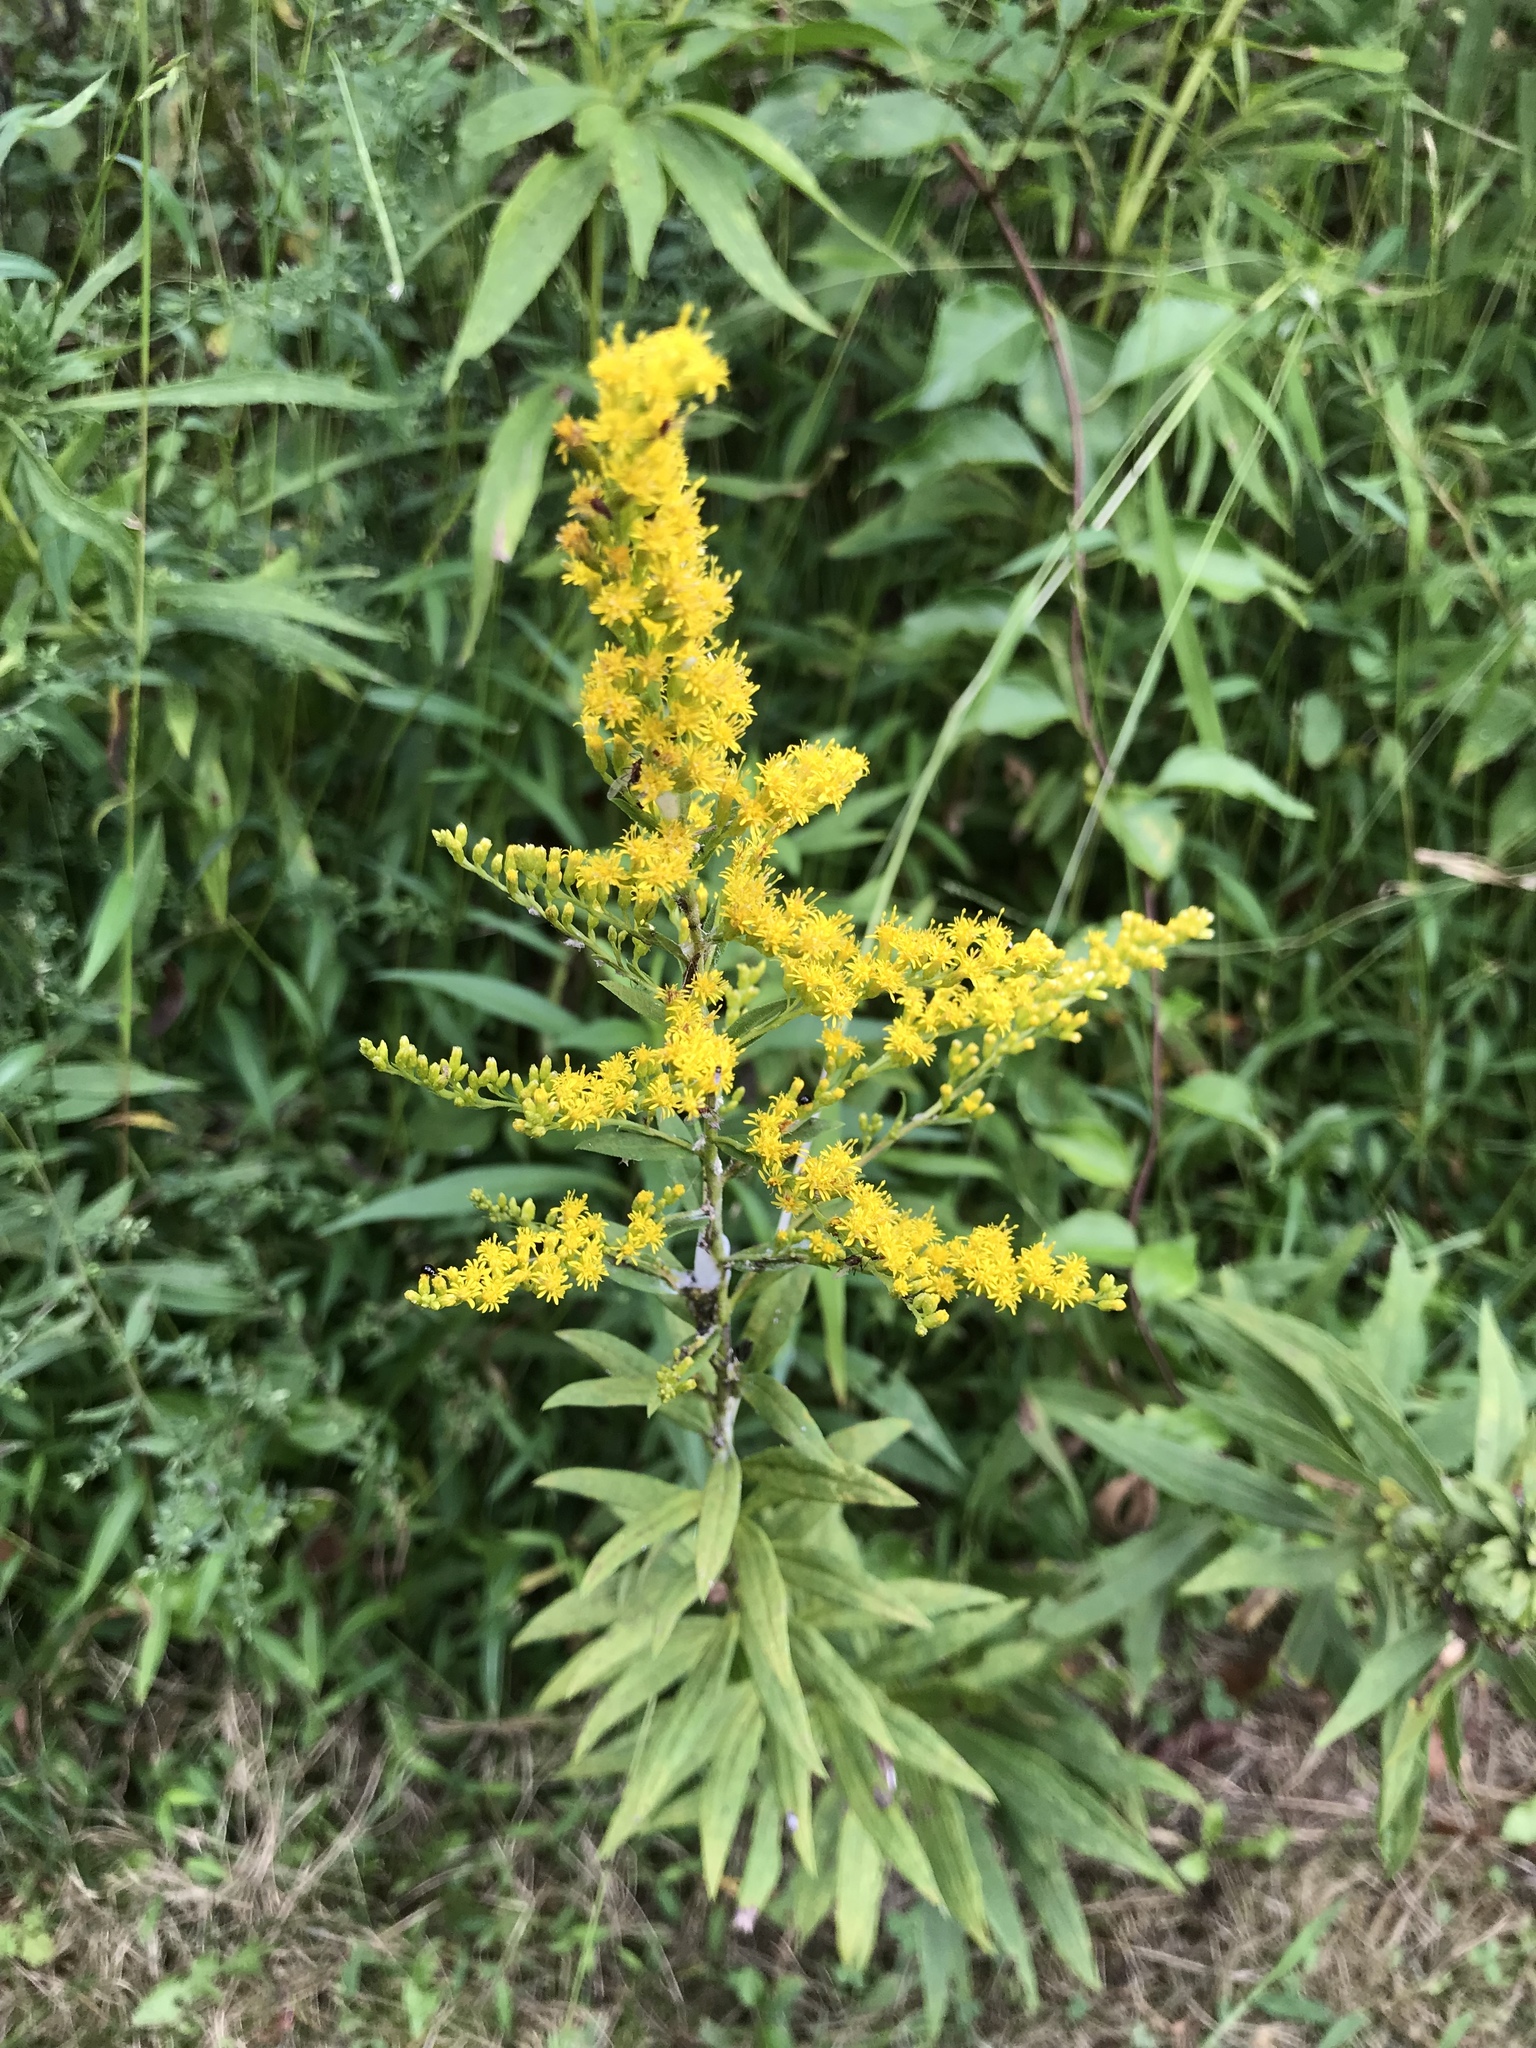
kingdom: Plantae
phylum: Tracheophyta
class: Magnoliopsida
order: Asterales
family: Asteraceae
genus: Solidago
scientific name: Solidago altissima
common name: Late goldenrod
